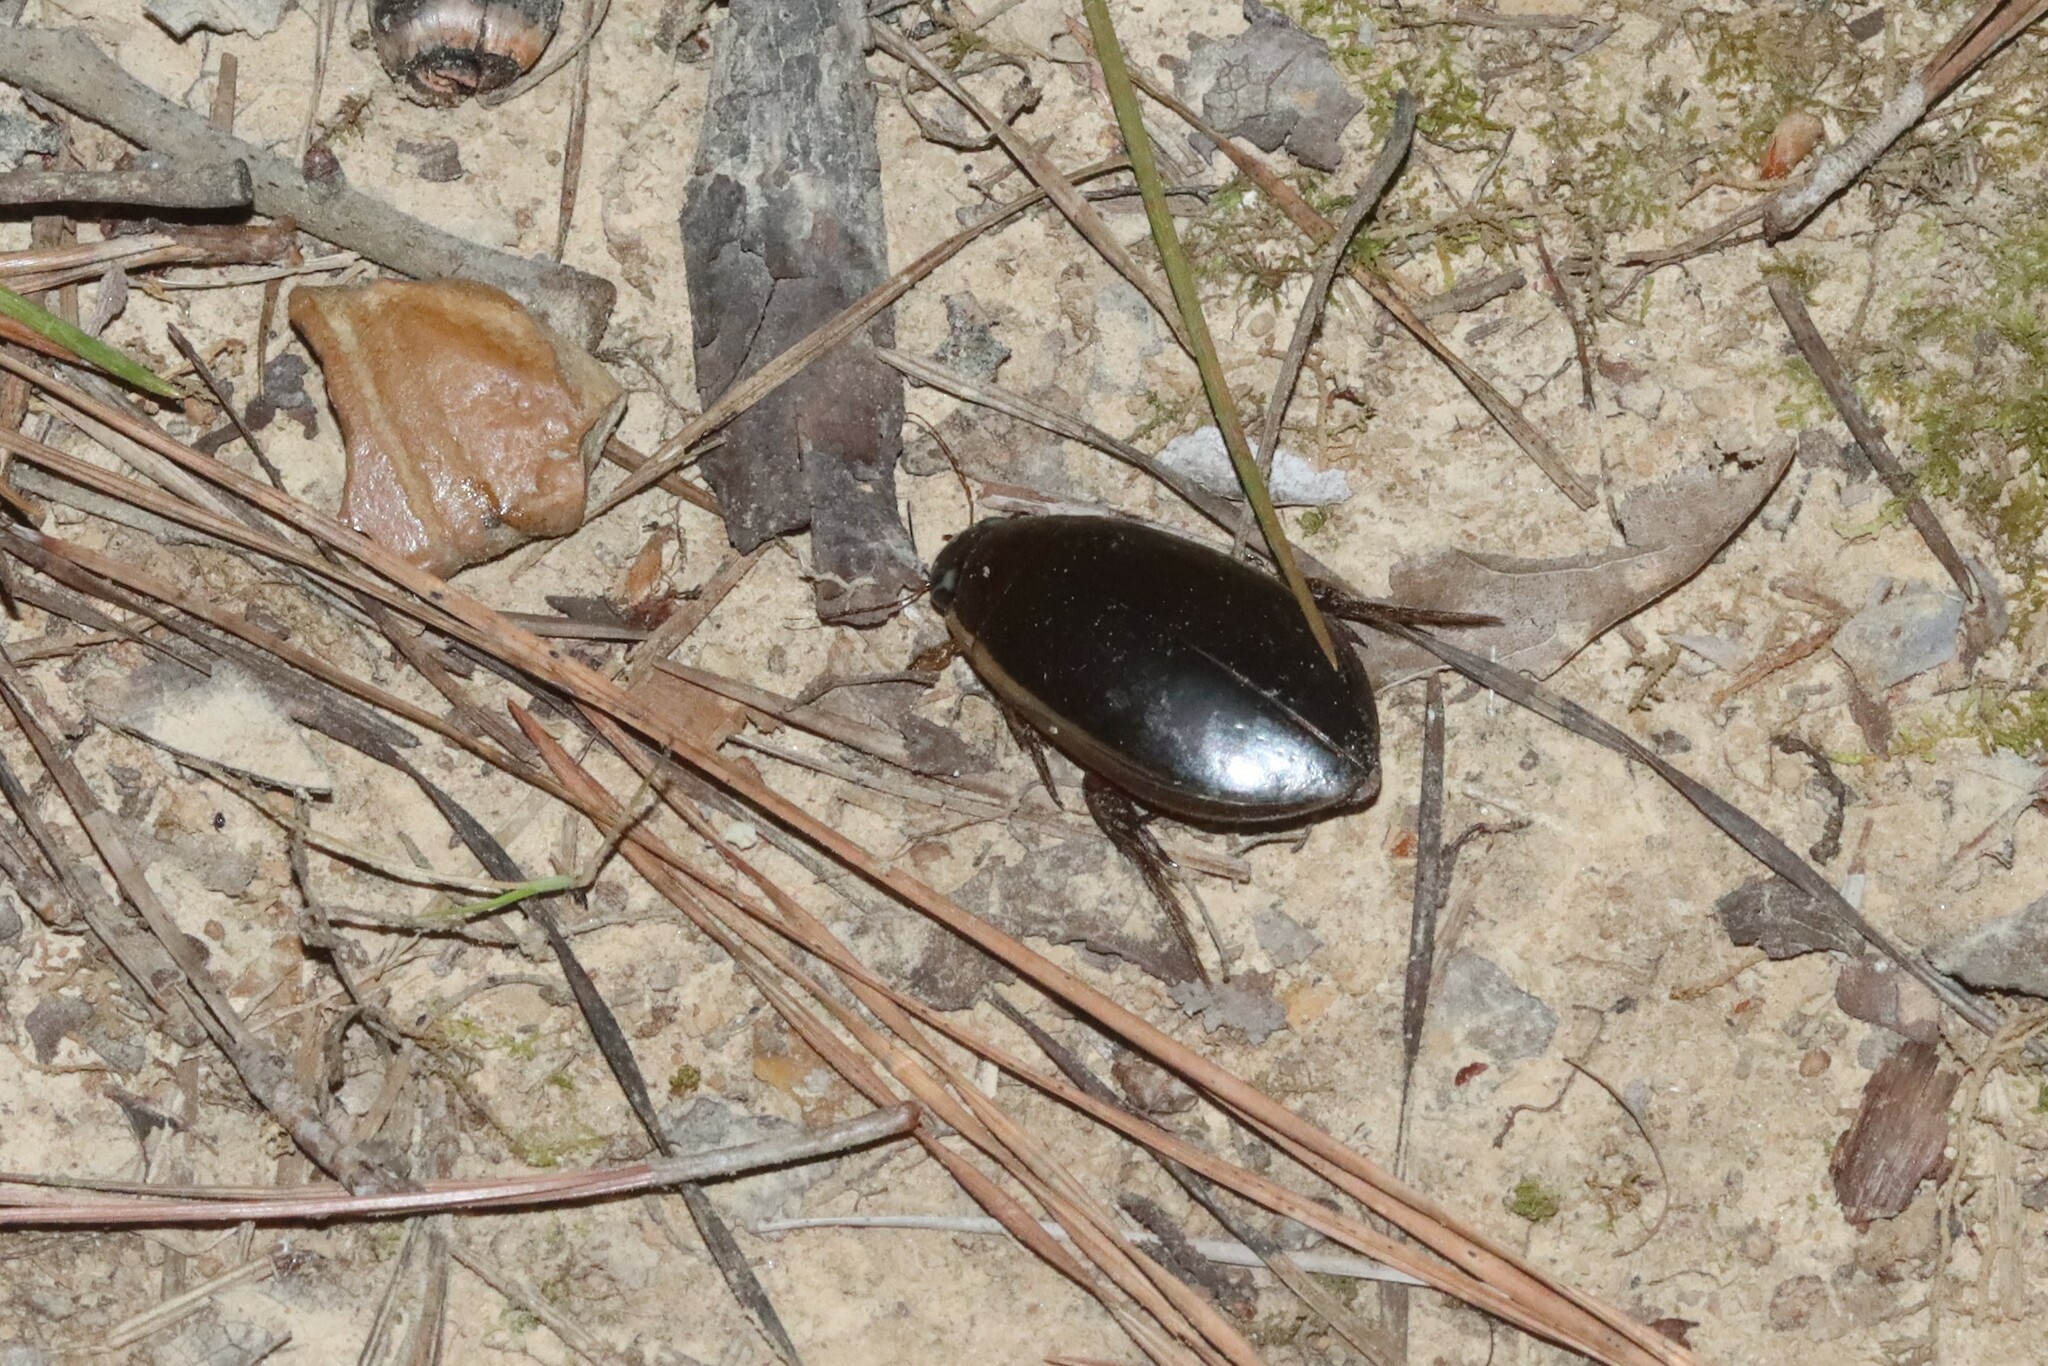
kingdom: Animalia
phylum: Arthropoda
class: Insecta
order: Coleoptera
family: Dytiscidae
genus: Cybister
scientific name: Cybister fimbriolatus
